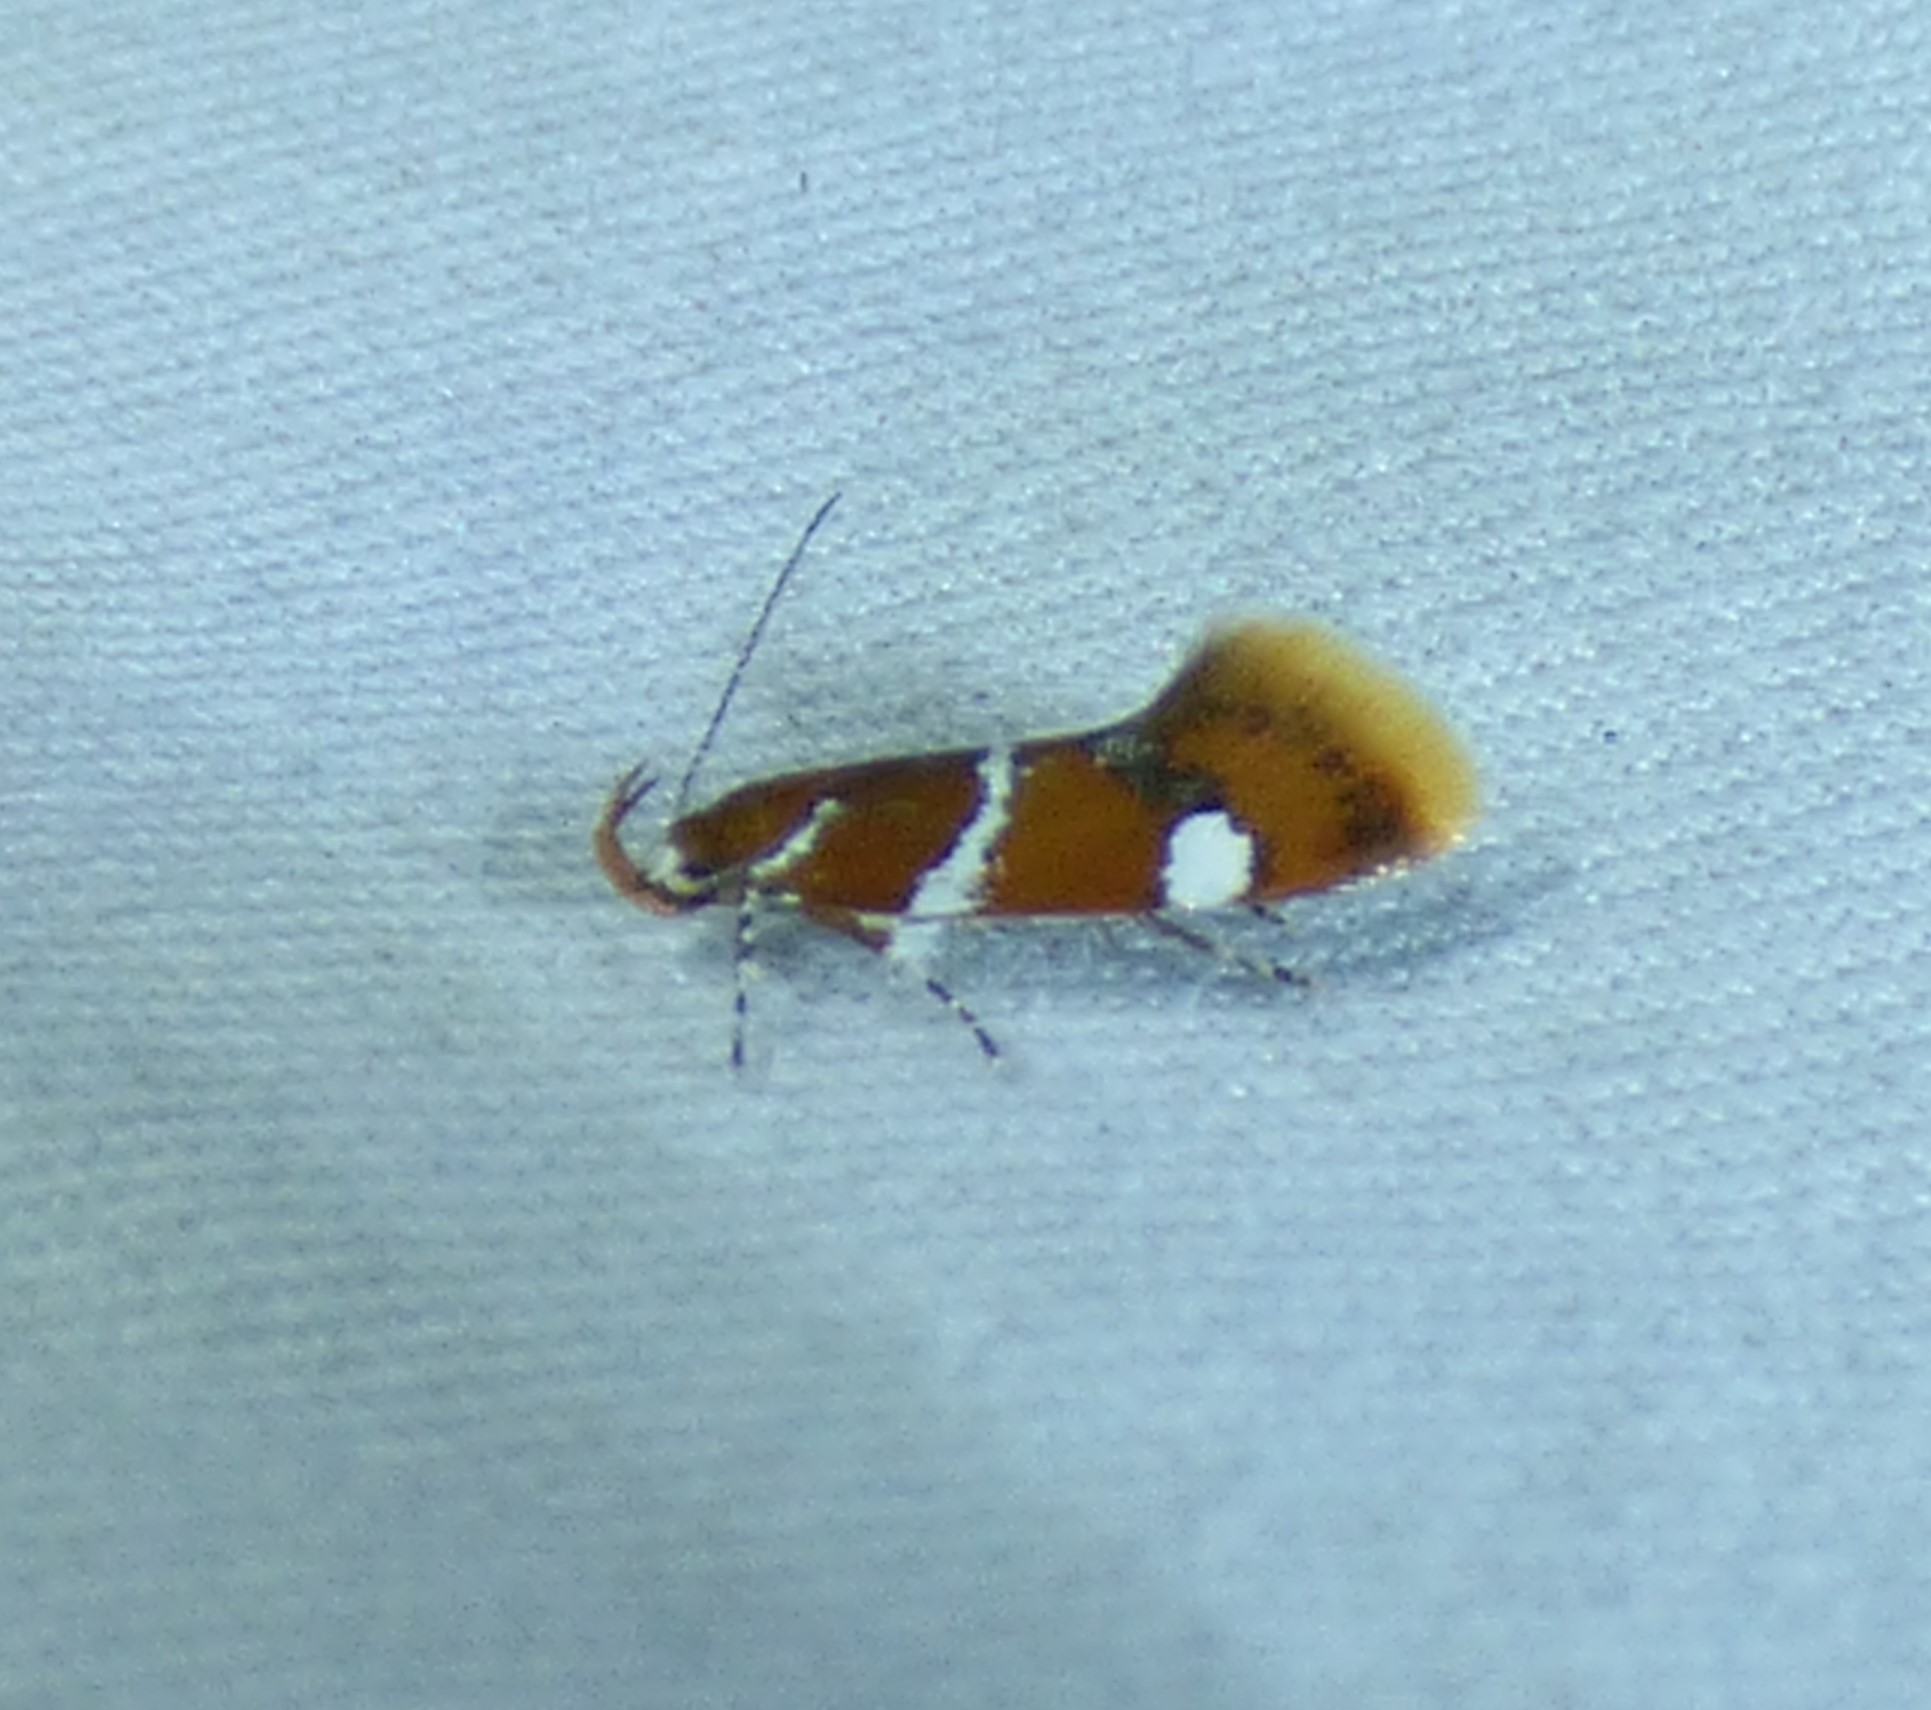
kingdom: Animalia
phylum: Arthropoda
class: Insecta
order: Lepidoptera
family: Oecophoridae
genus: Promalactis
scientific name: Promalactis suzukiella
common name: Moth
